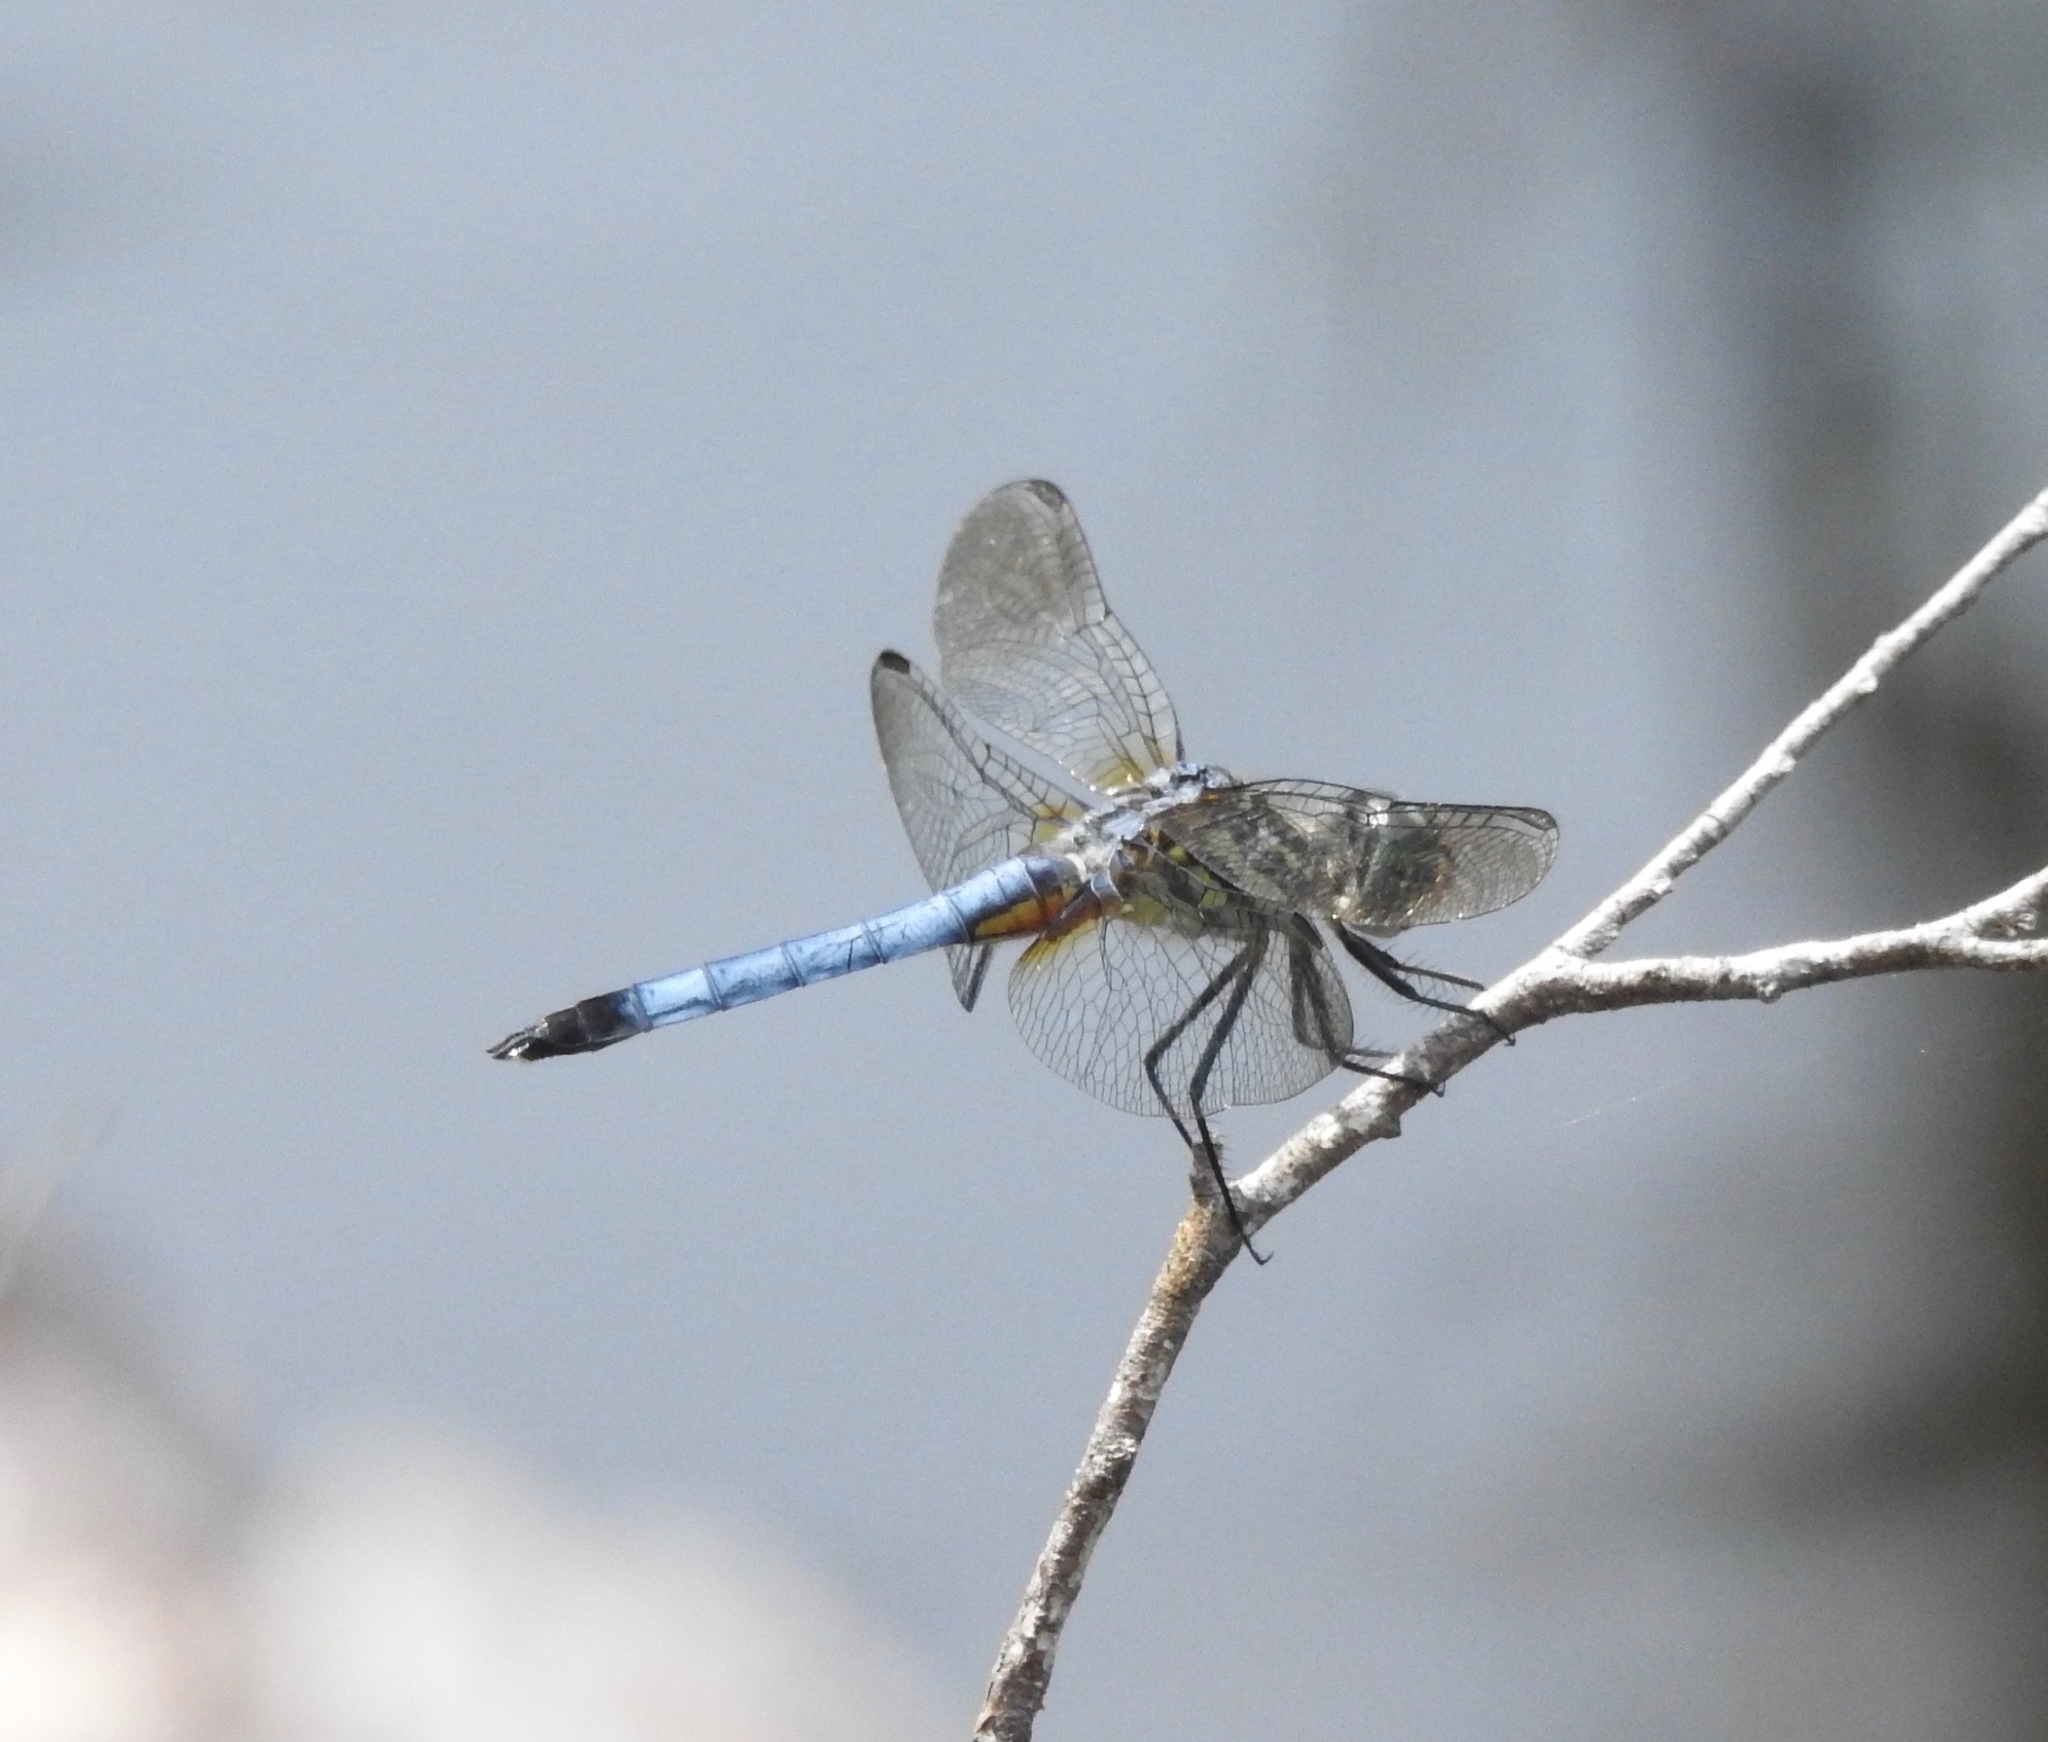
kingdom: Animalia
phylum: Arthropoda
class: Insecta
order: Odonata
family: Libellulidae
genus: Pachydiplax
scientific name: Pachydiplax longipennis
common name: Blue dasher
